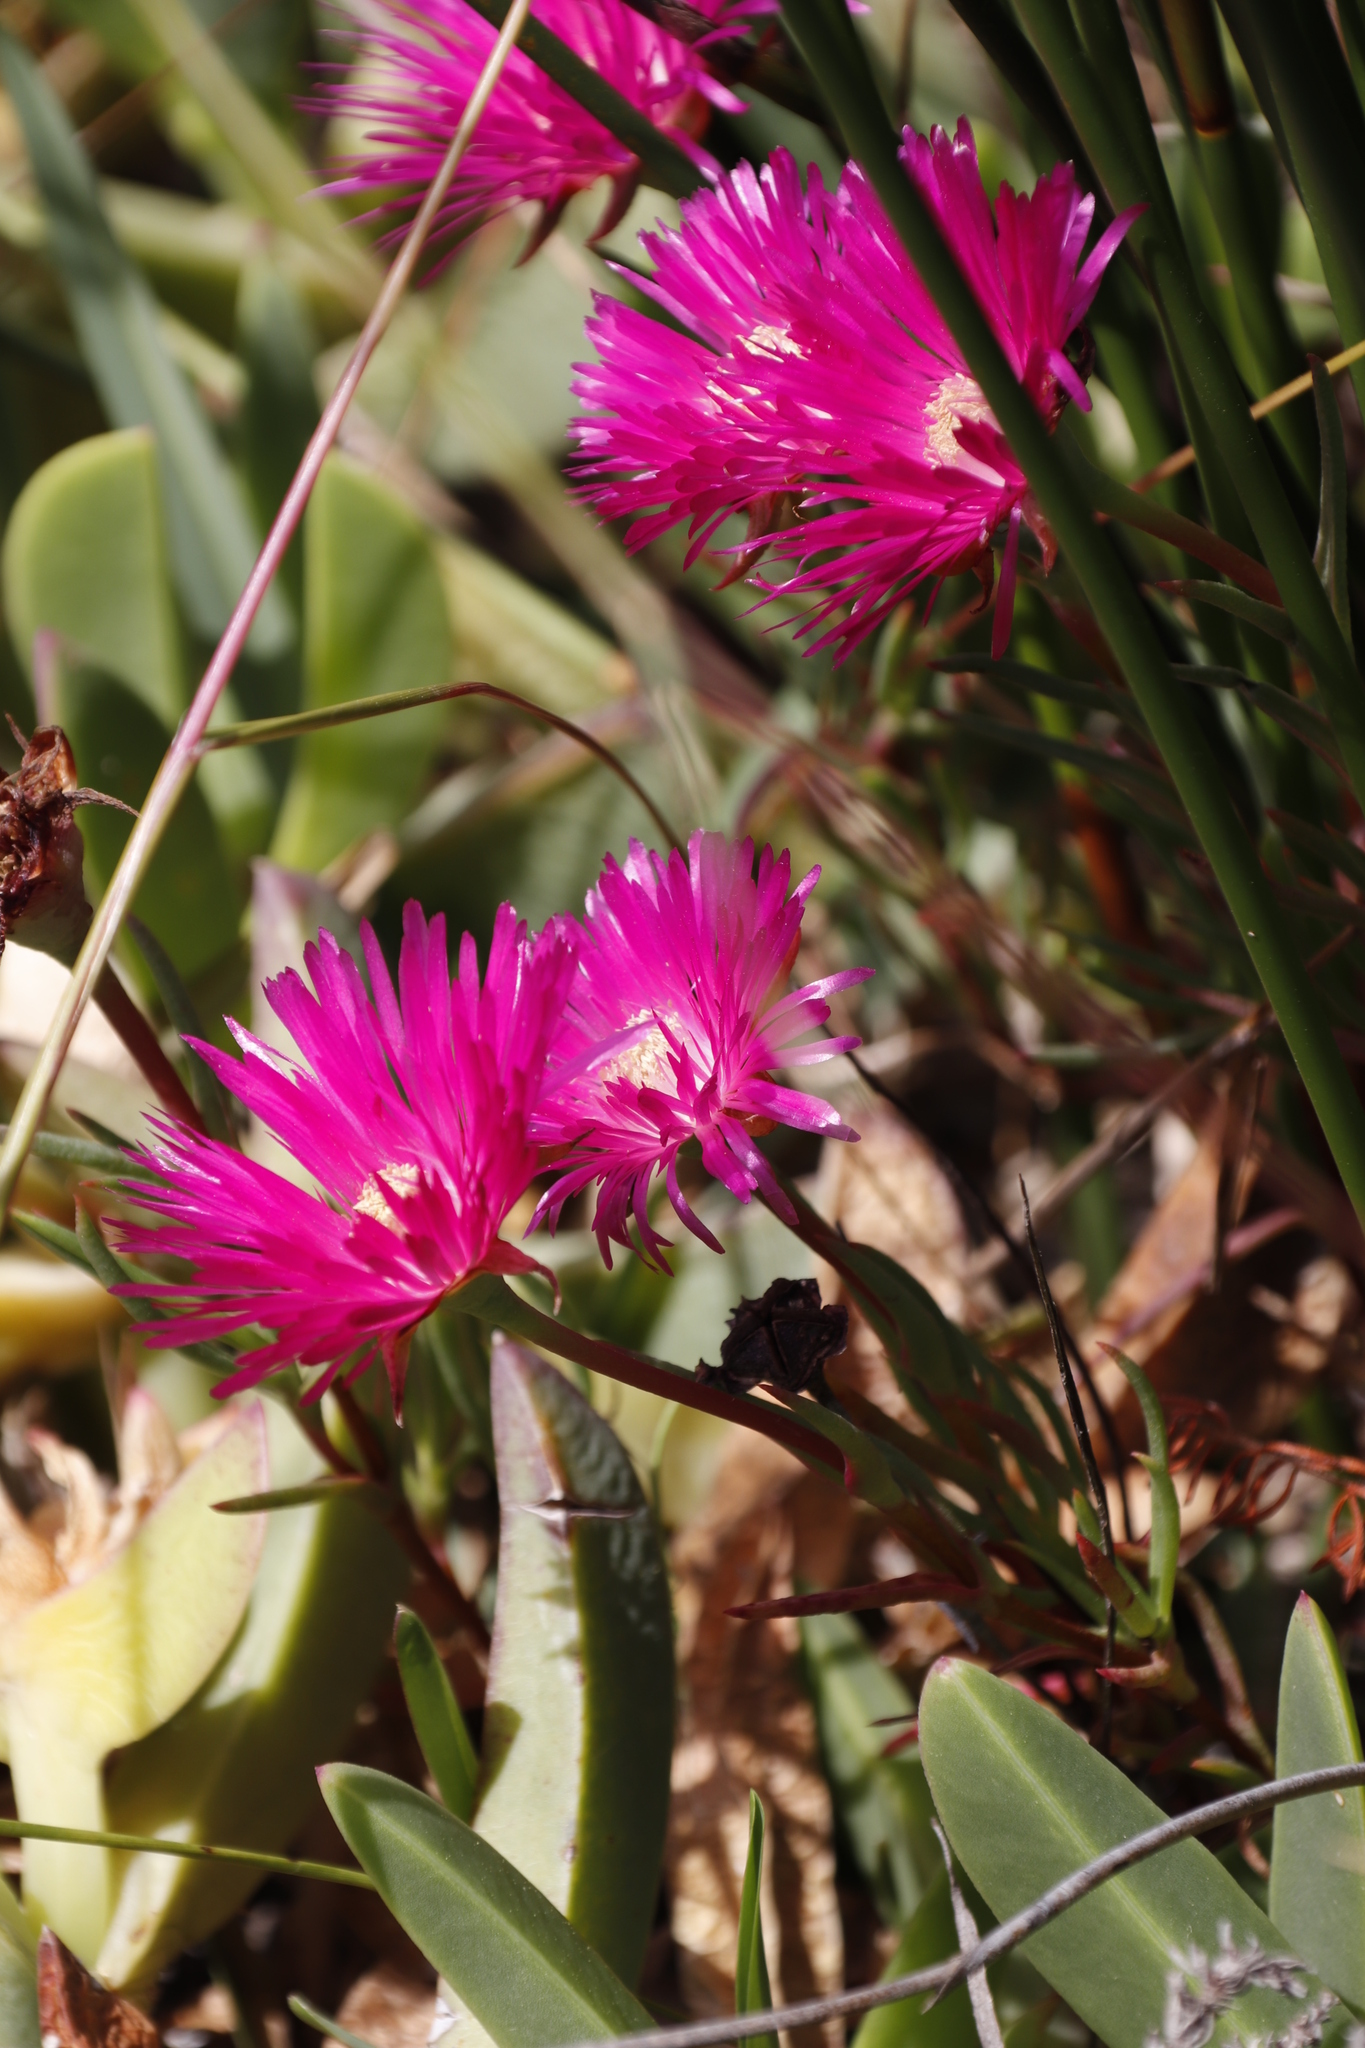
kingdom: Plantae
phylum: Tracheophyta
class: Magnoliopsida
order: Caryophyllales
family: Aizoaceae
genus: Lampranthus
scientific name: Lampranthus tenuifolius
